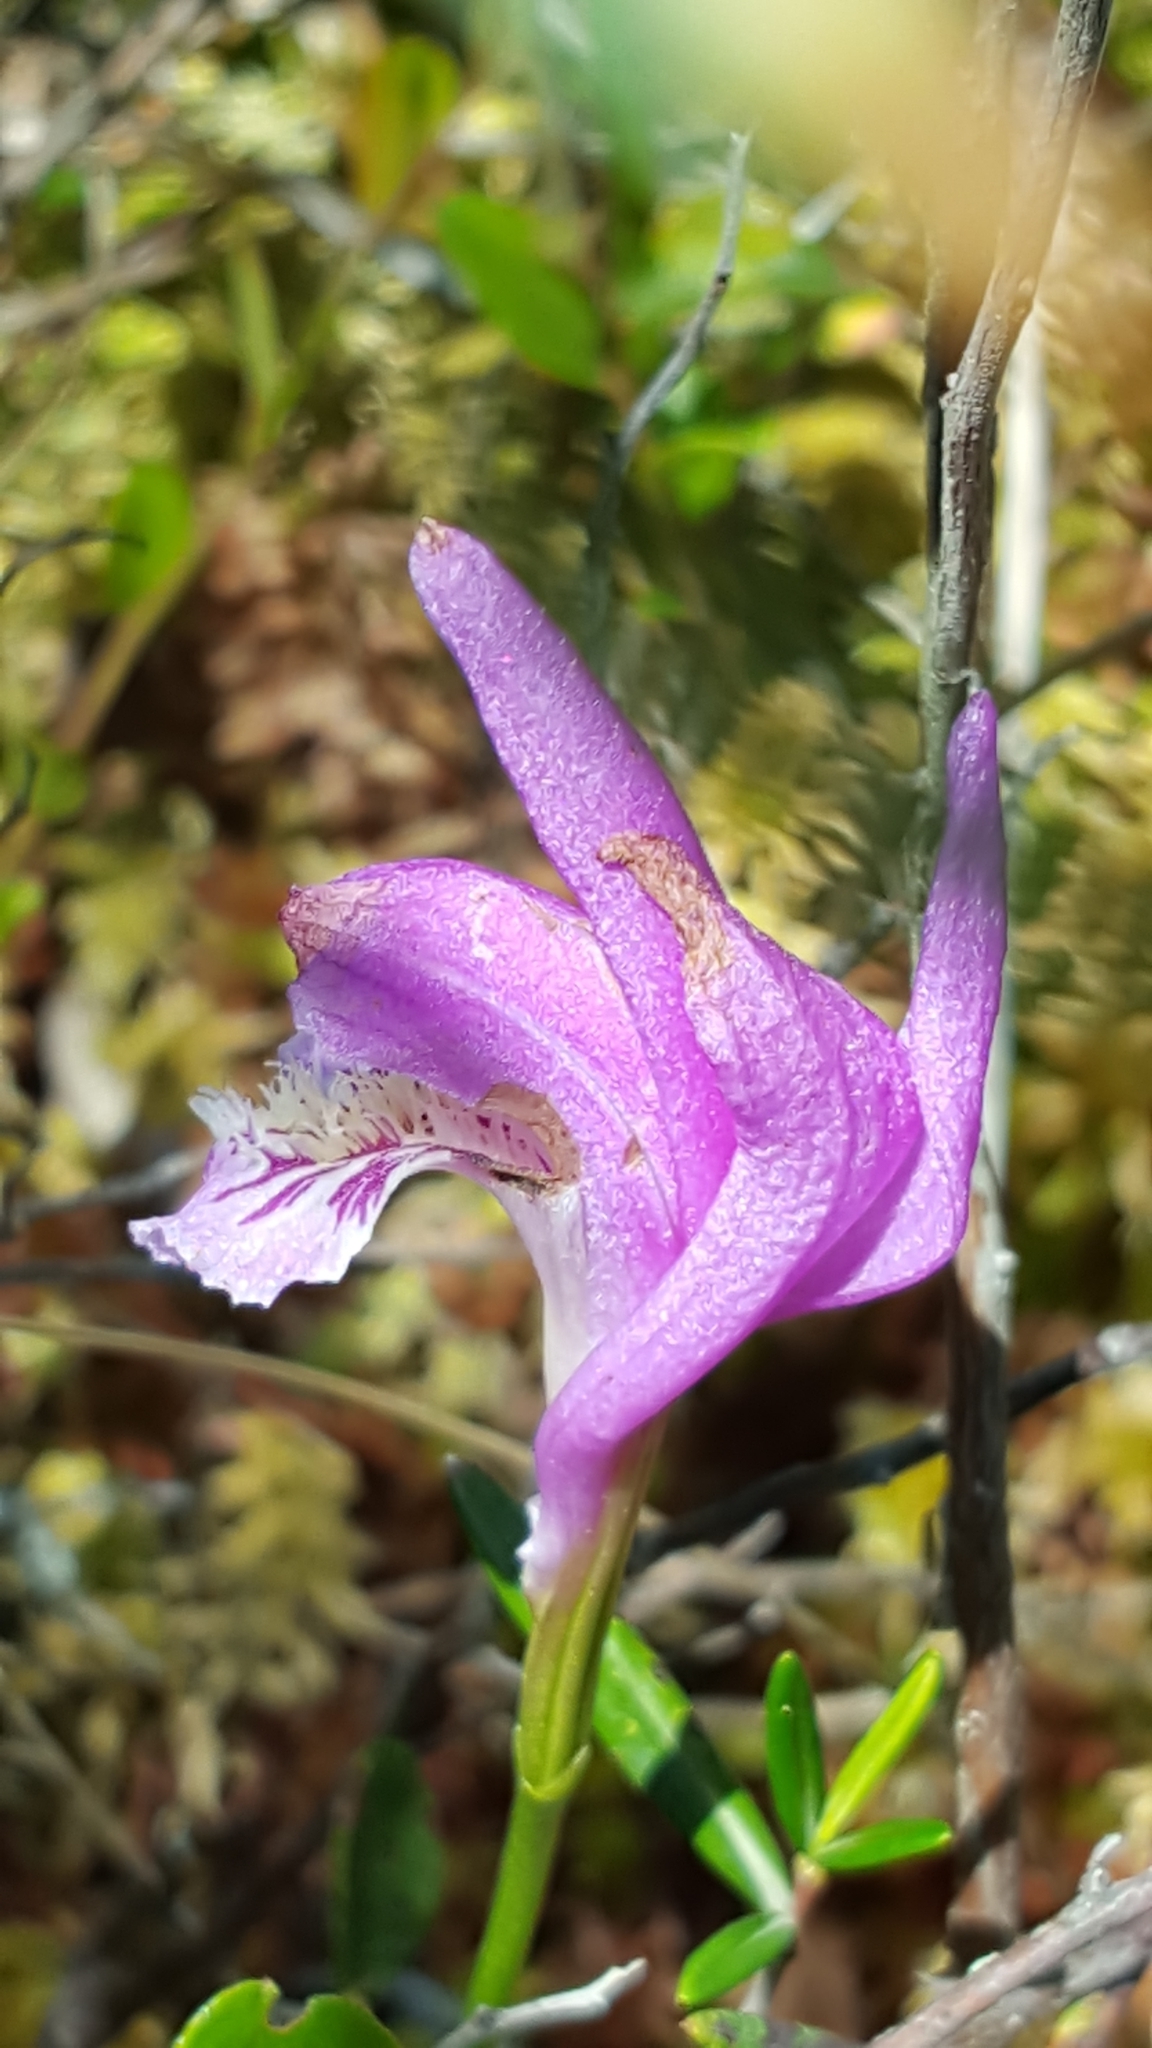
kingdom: Plantae
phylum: Tracheophyta
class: Liliopsida
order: Asparagales
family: Orchidaceae
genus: Arethusa
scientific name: Arethusa bulbosa
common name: Arethusa
